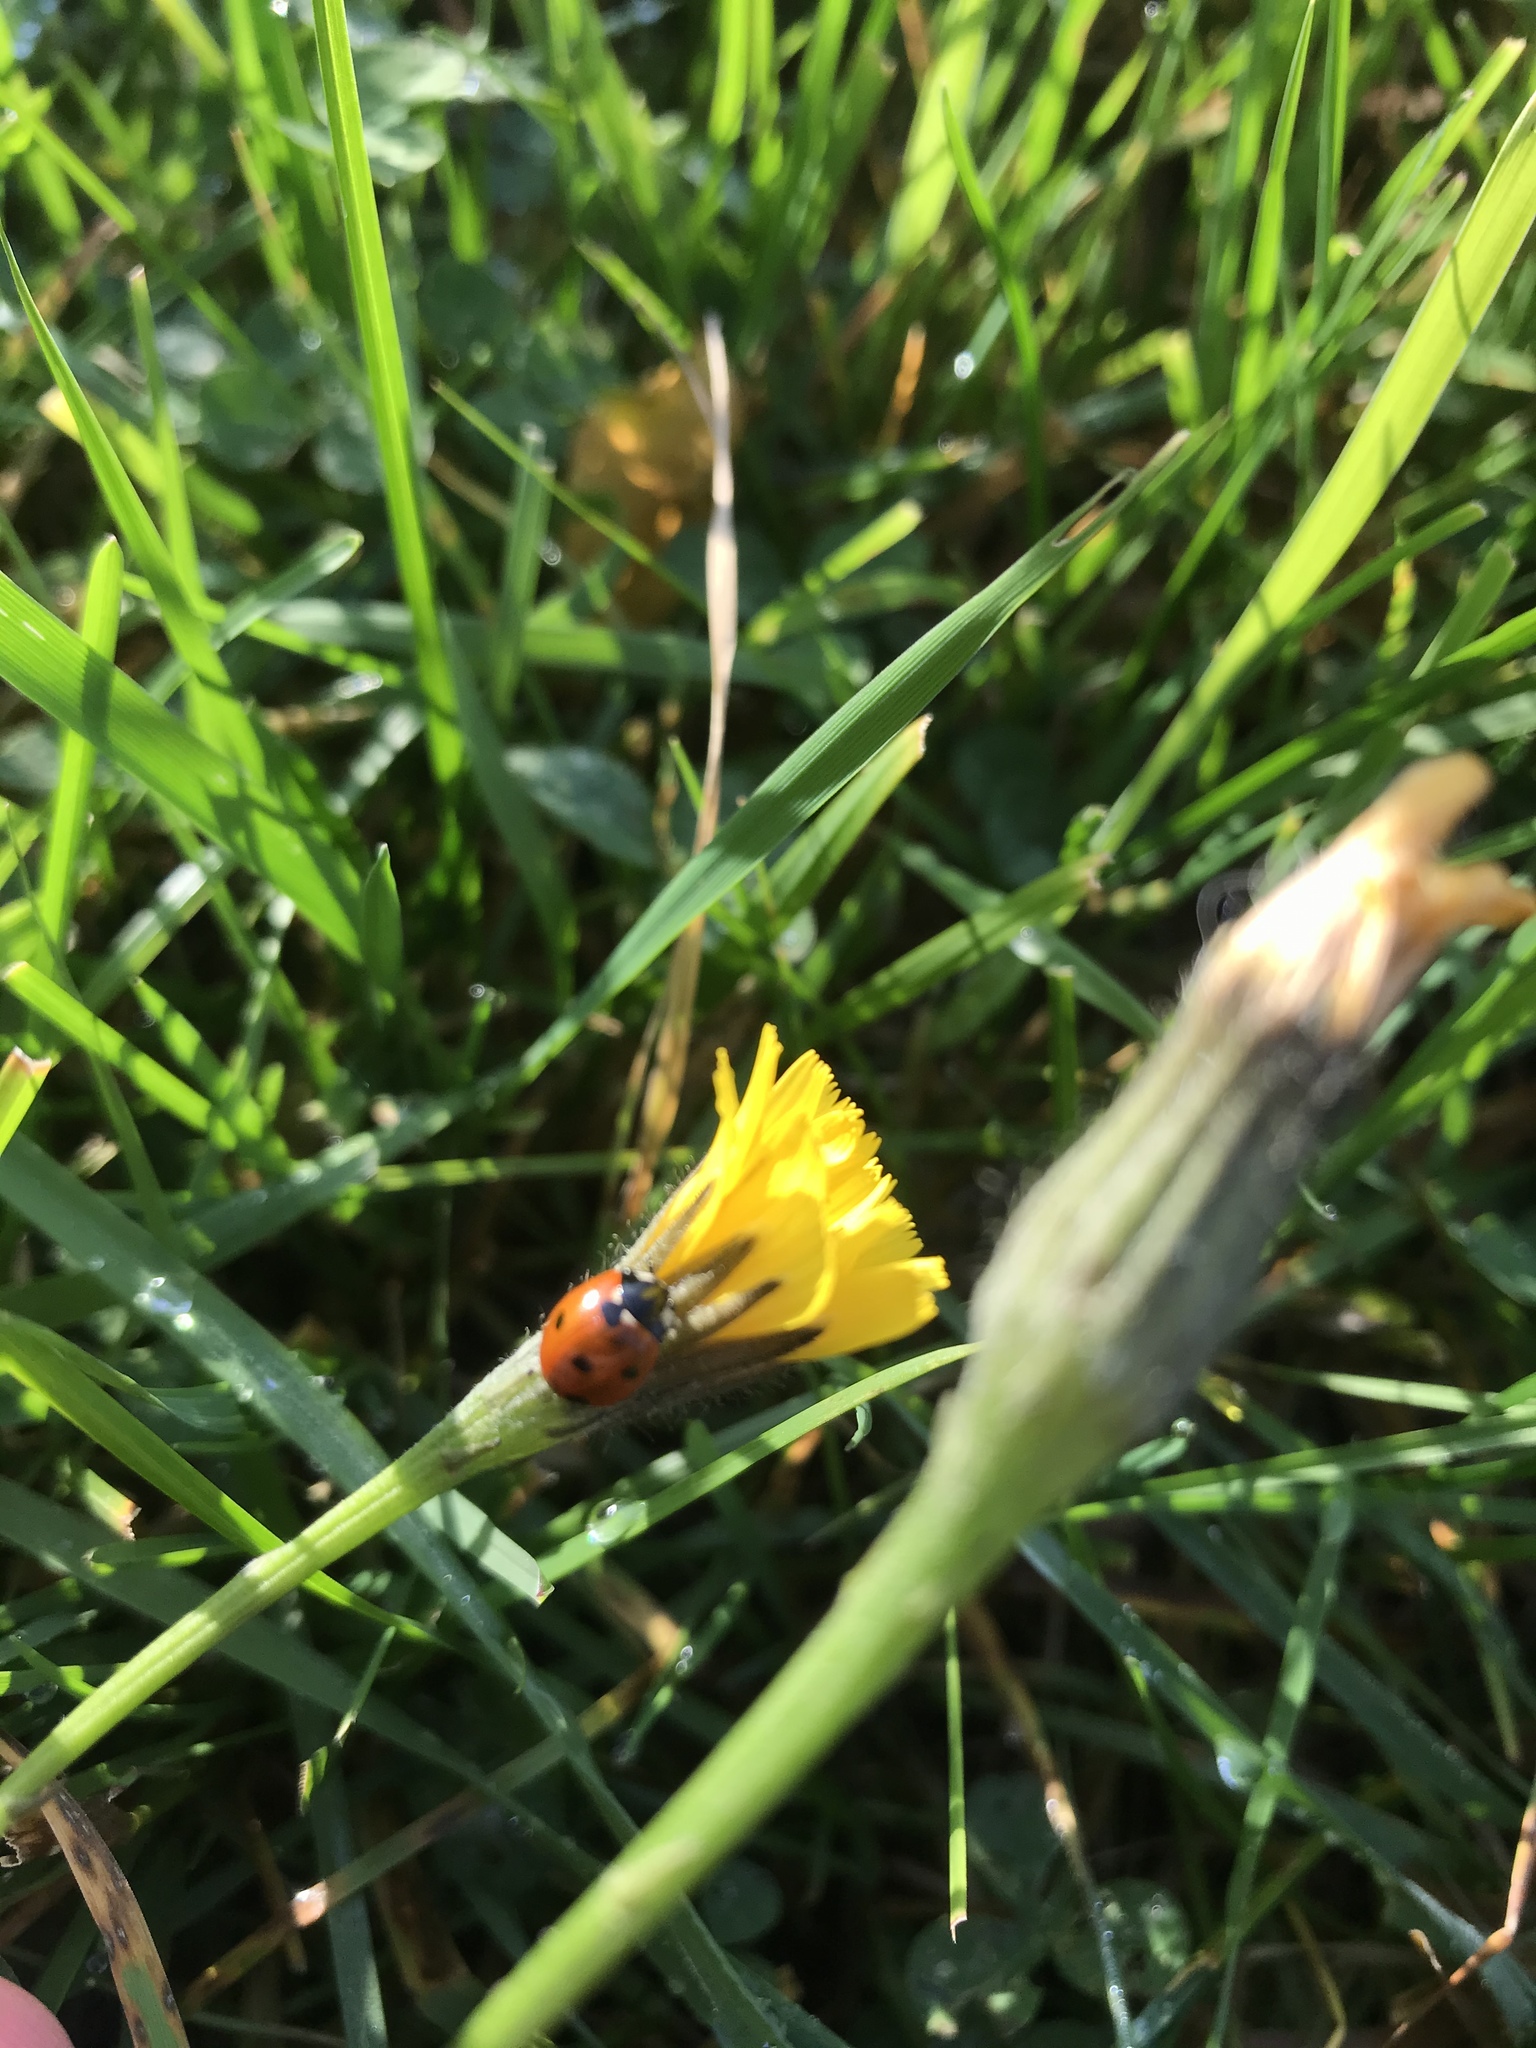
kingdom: Animalia
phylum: Arthropoda
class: Insecta
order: Coleoptera
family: Coccinellidae
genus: Coccinella
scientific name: Coccinella septempunctata
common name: Sevenspotted lady beetle
